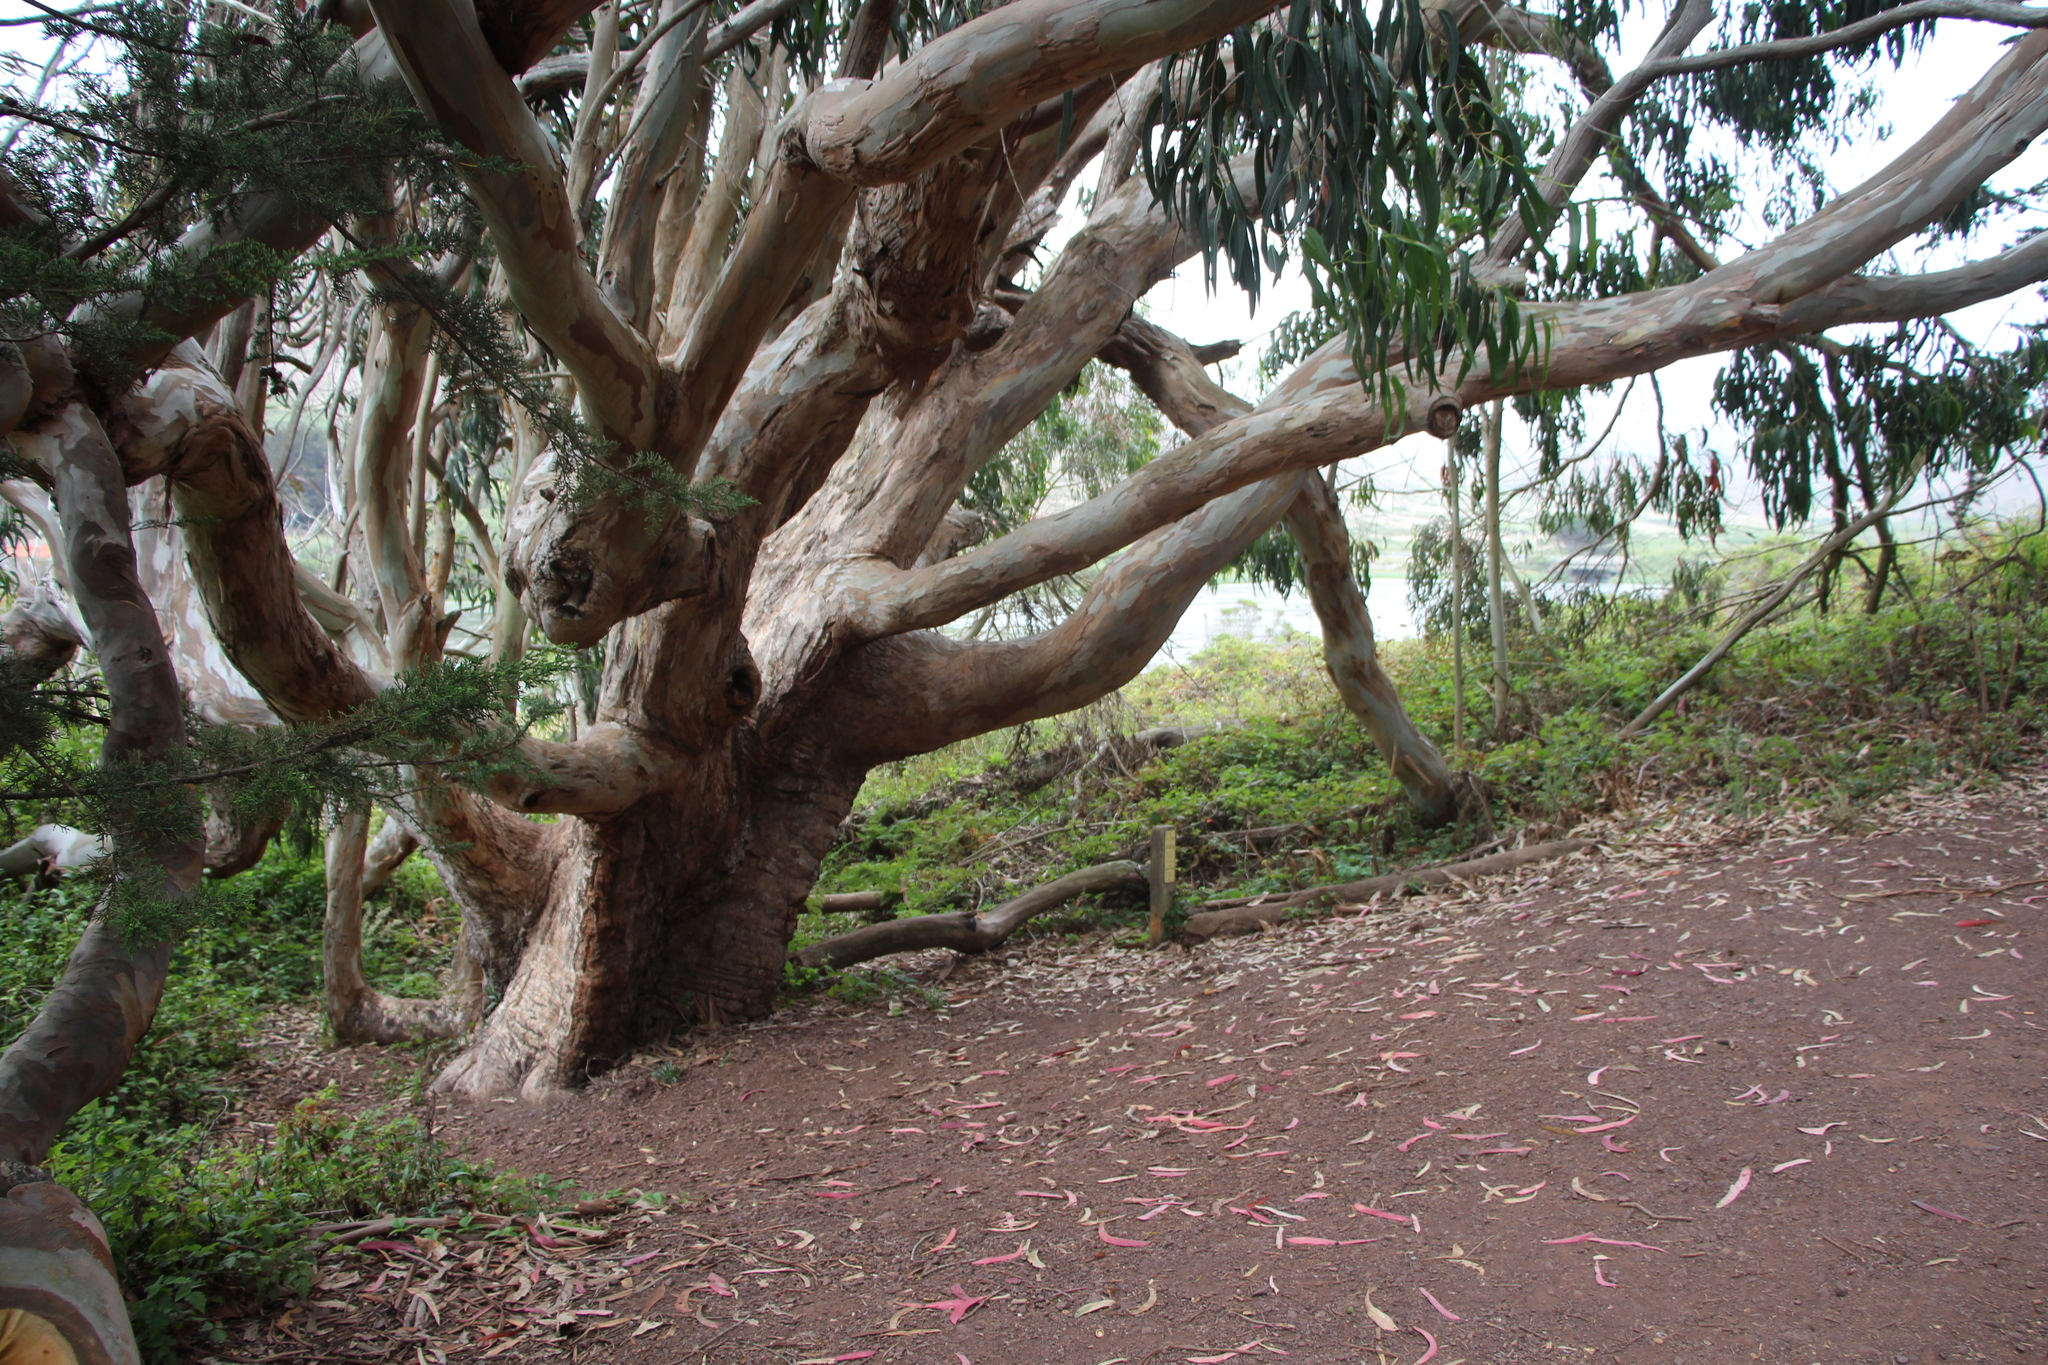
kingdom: Plantae
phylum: Tracheophyta
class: Magnoliopsida
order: Myrtales
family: Myrtaceae
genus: Eucalyptus
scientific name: Eucalyptus globulus
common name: Southern blue-gum
